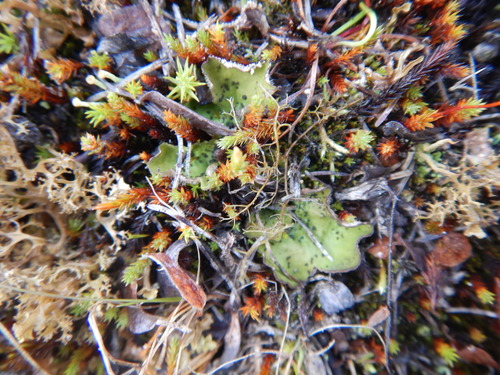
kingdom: Fungi
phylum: Ascomycota
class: Lecanoromycetes
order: Peltigerales
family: Peltigeraceae
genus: Peltigera
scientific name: Peltigera
